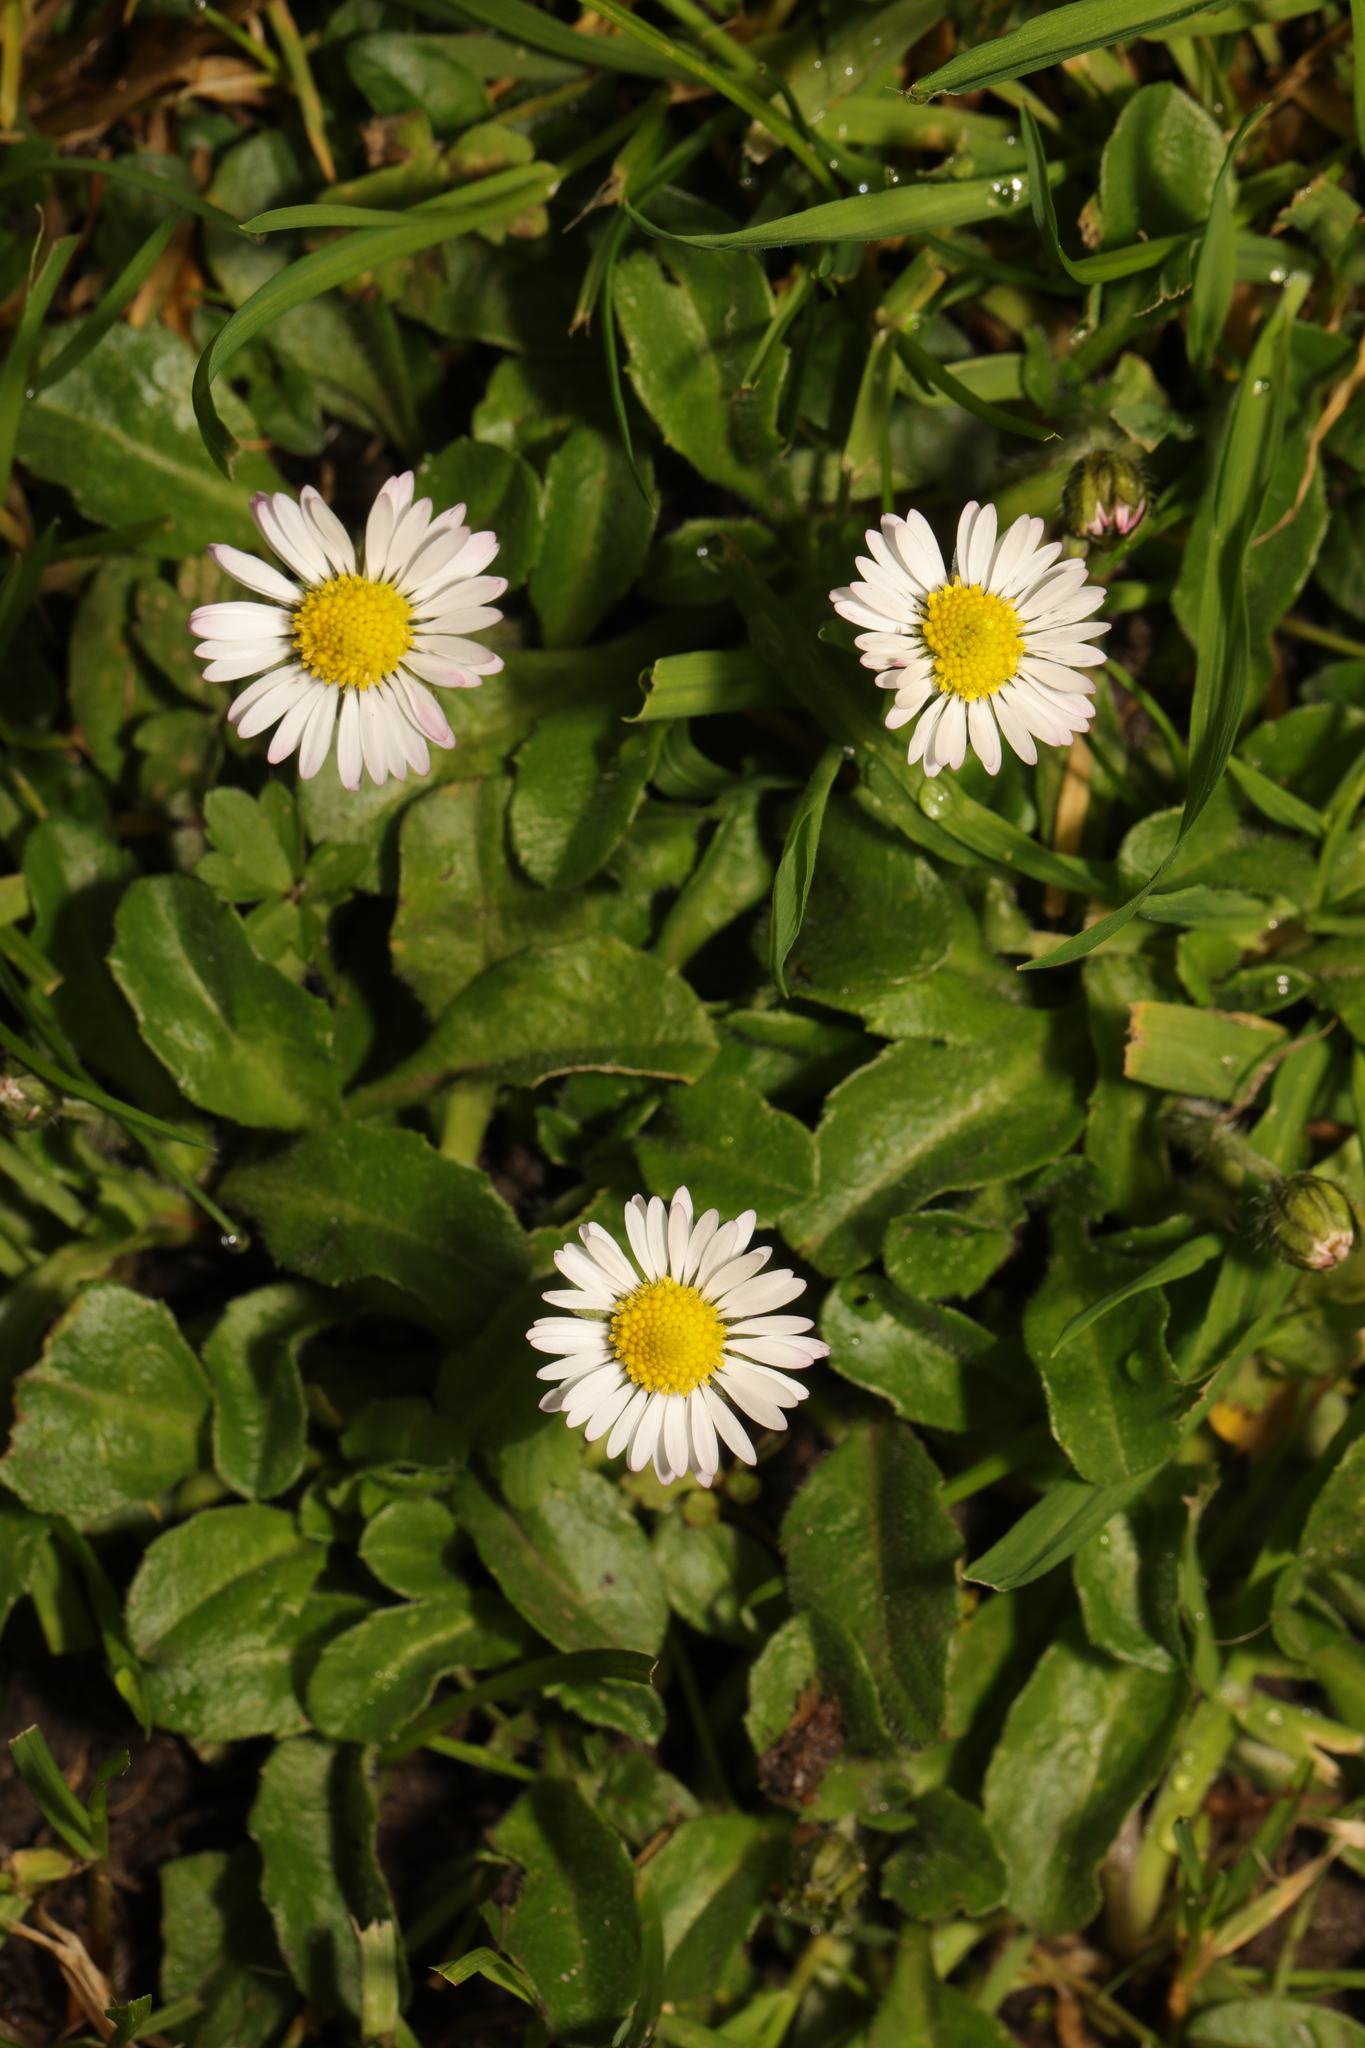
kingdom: Plantae
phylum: Tracheophyta
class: Magnoliopsida
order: Asterales
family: Asteraceae
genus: Bellis
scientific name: Bellis perennis
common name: Lawndaisy
